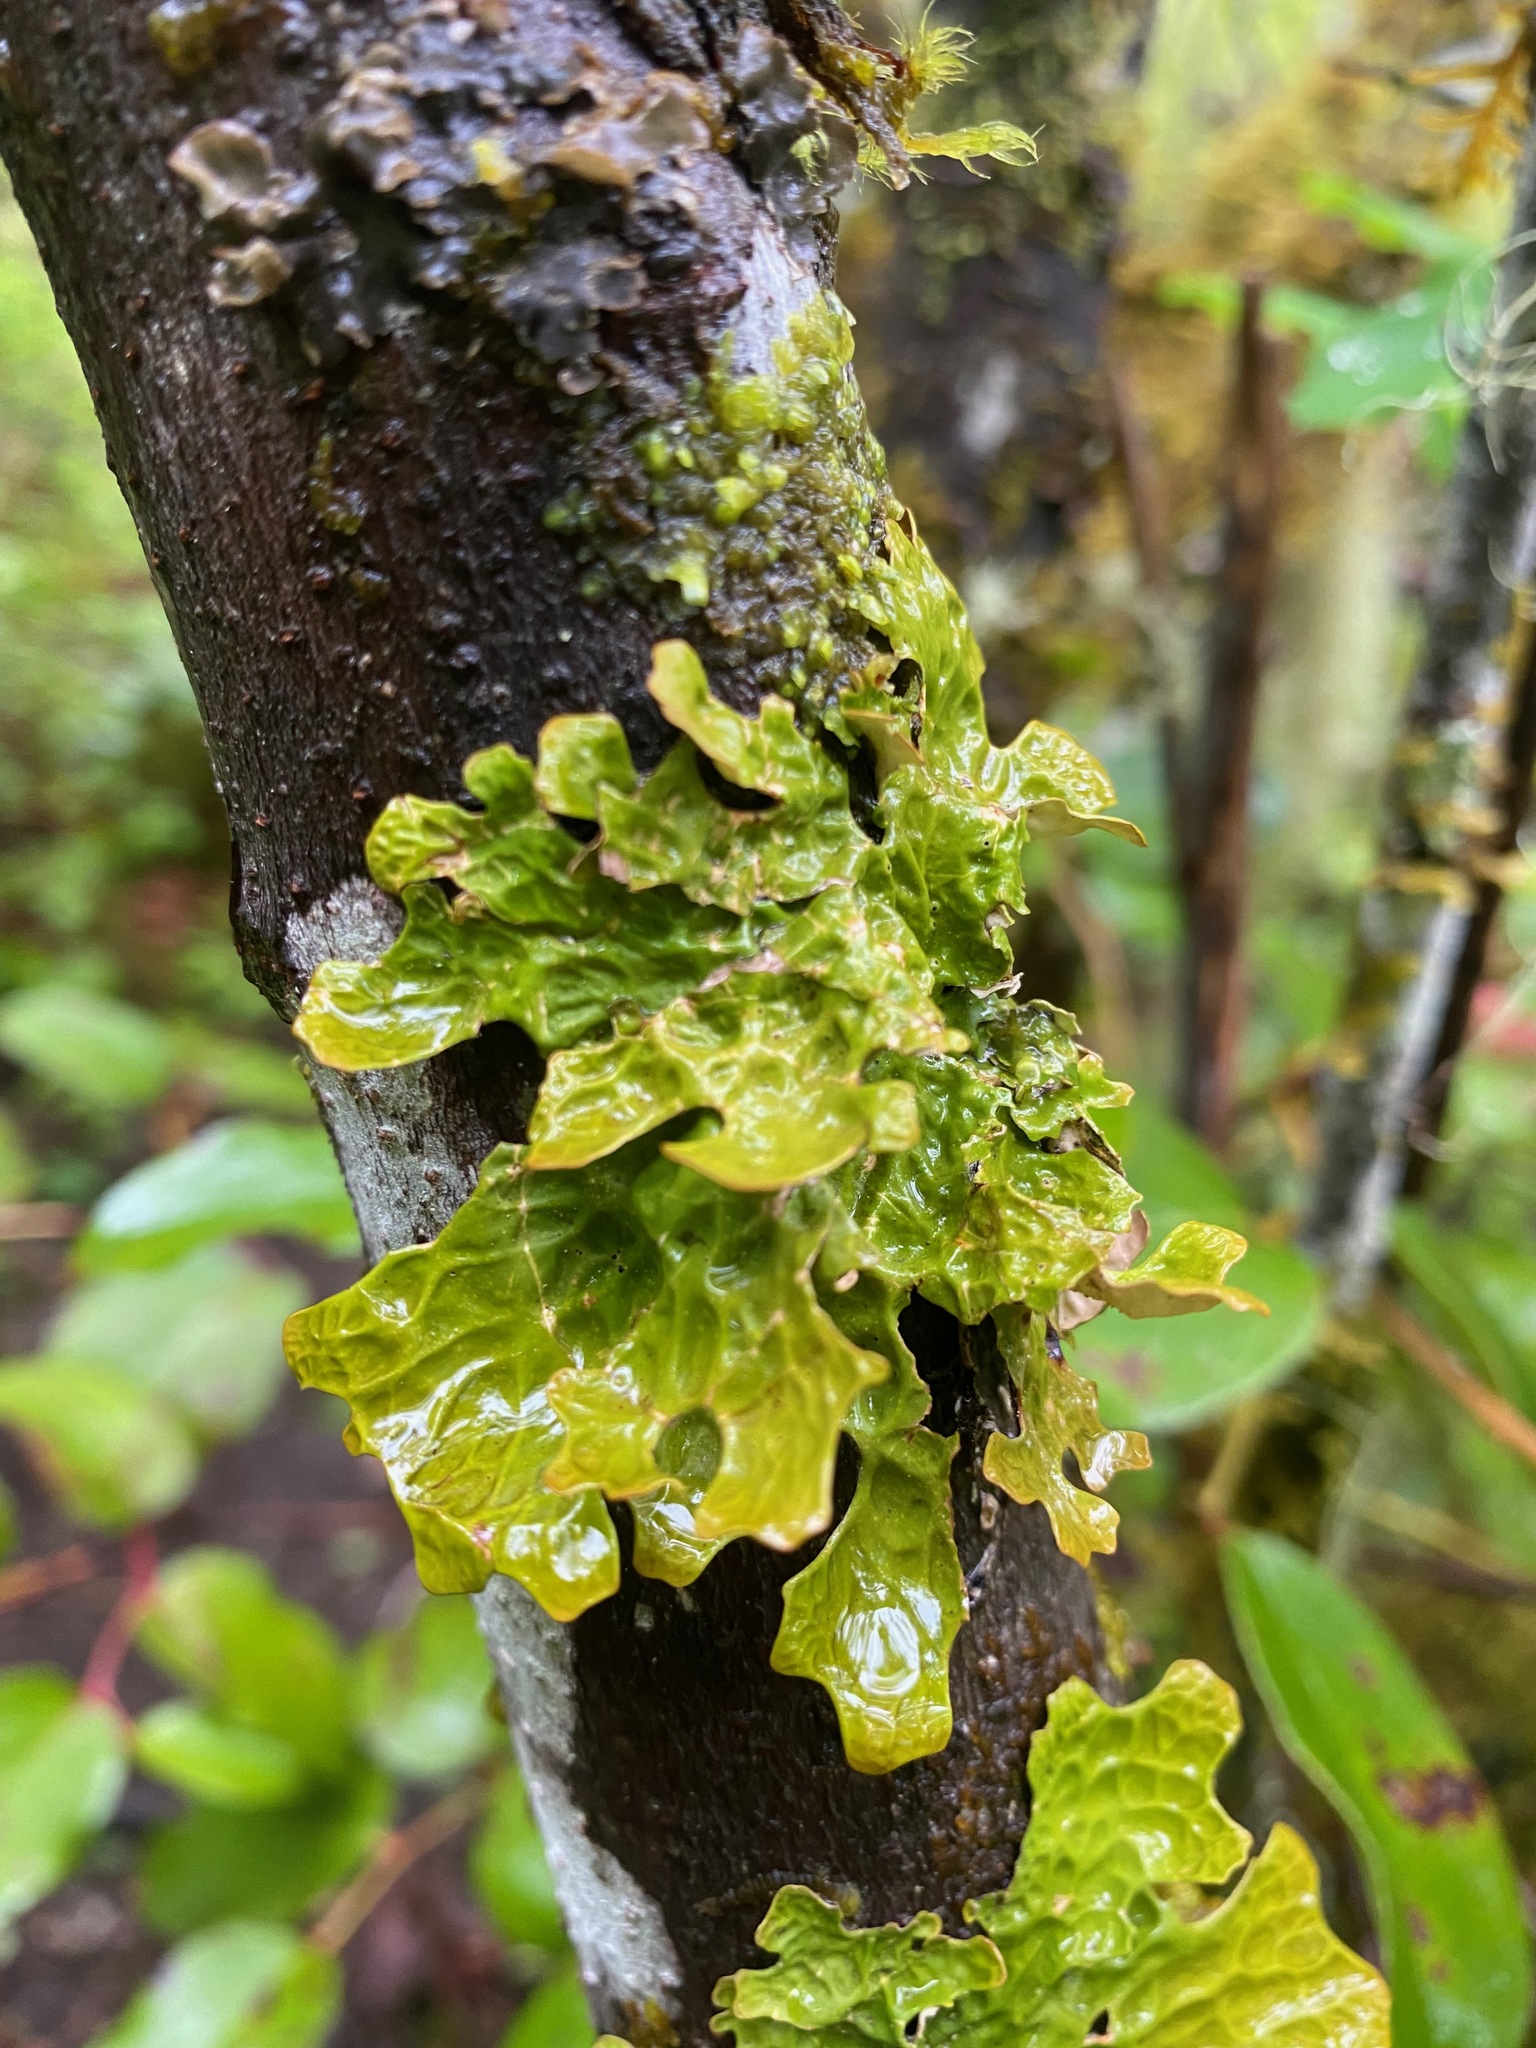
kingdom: Fungi
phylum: Ascomycota
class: Lecanoromycetes
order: Peltigerales
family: Lobariaceae
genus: Lobaria
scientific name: Lobaria pulmonaria
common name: Lungwort
